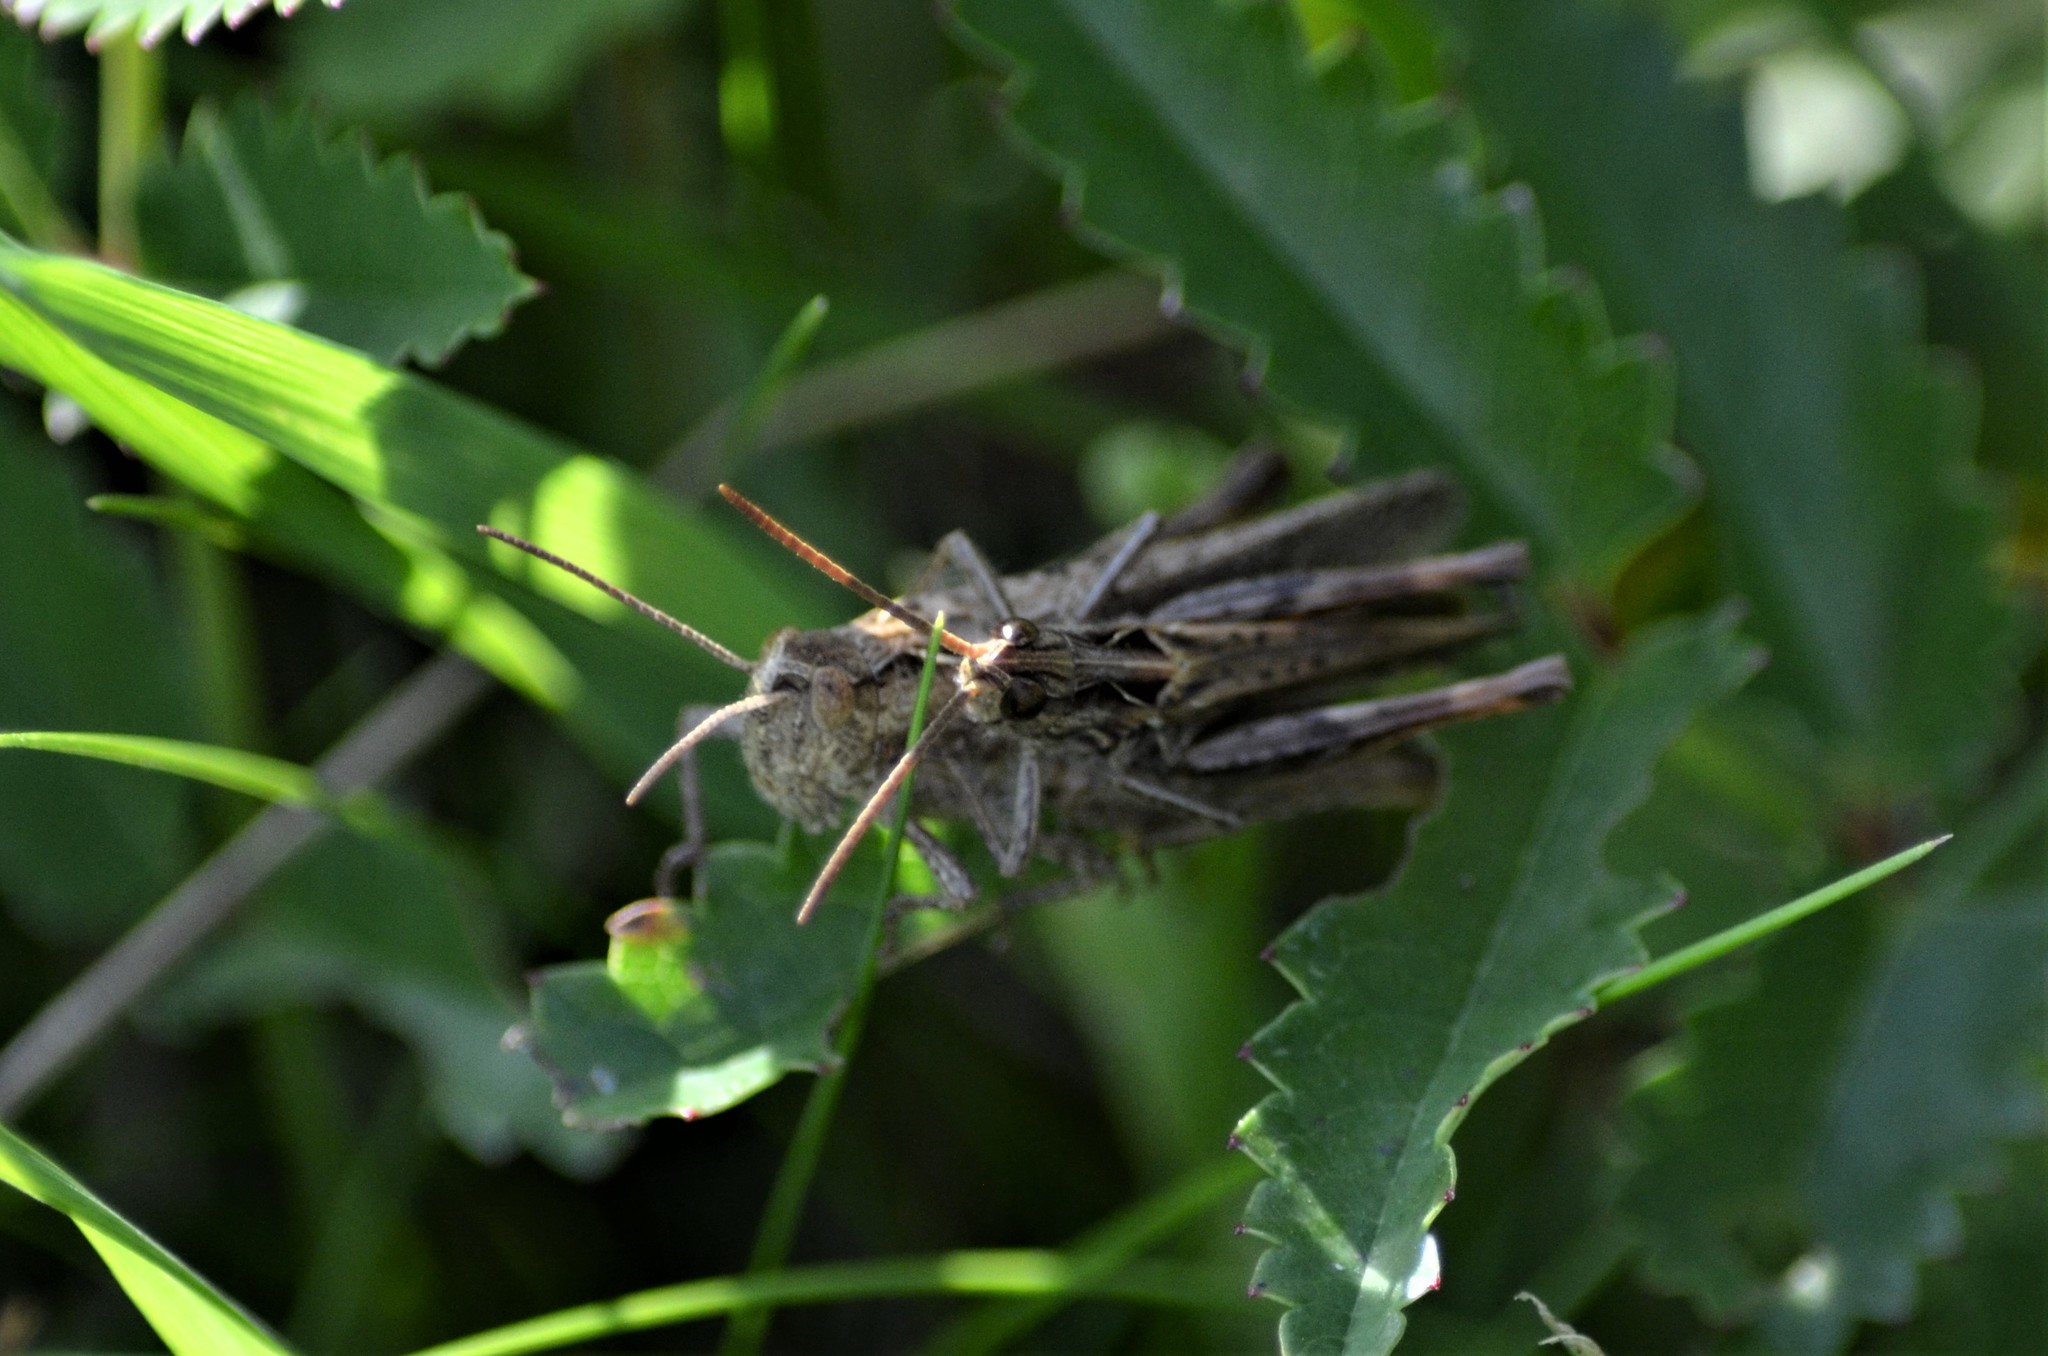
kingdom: Animalia
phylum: Arthropoda
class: Insecta
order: Orthoptera
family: Acrididae
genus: Chorthippus
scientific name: Chorthippus biguttulus
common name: Bow-winged grasshopper
